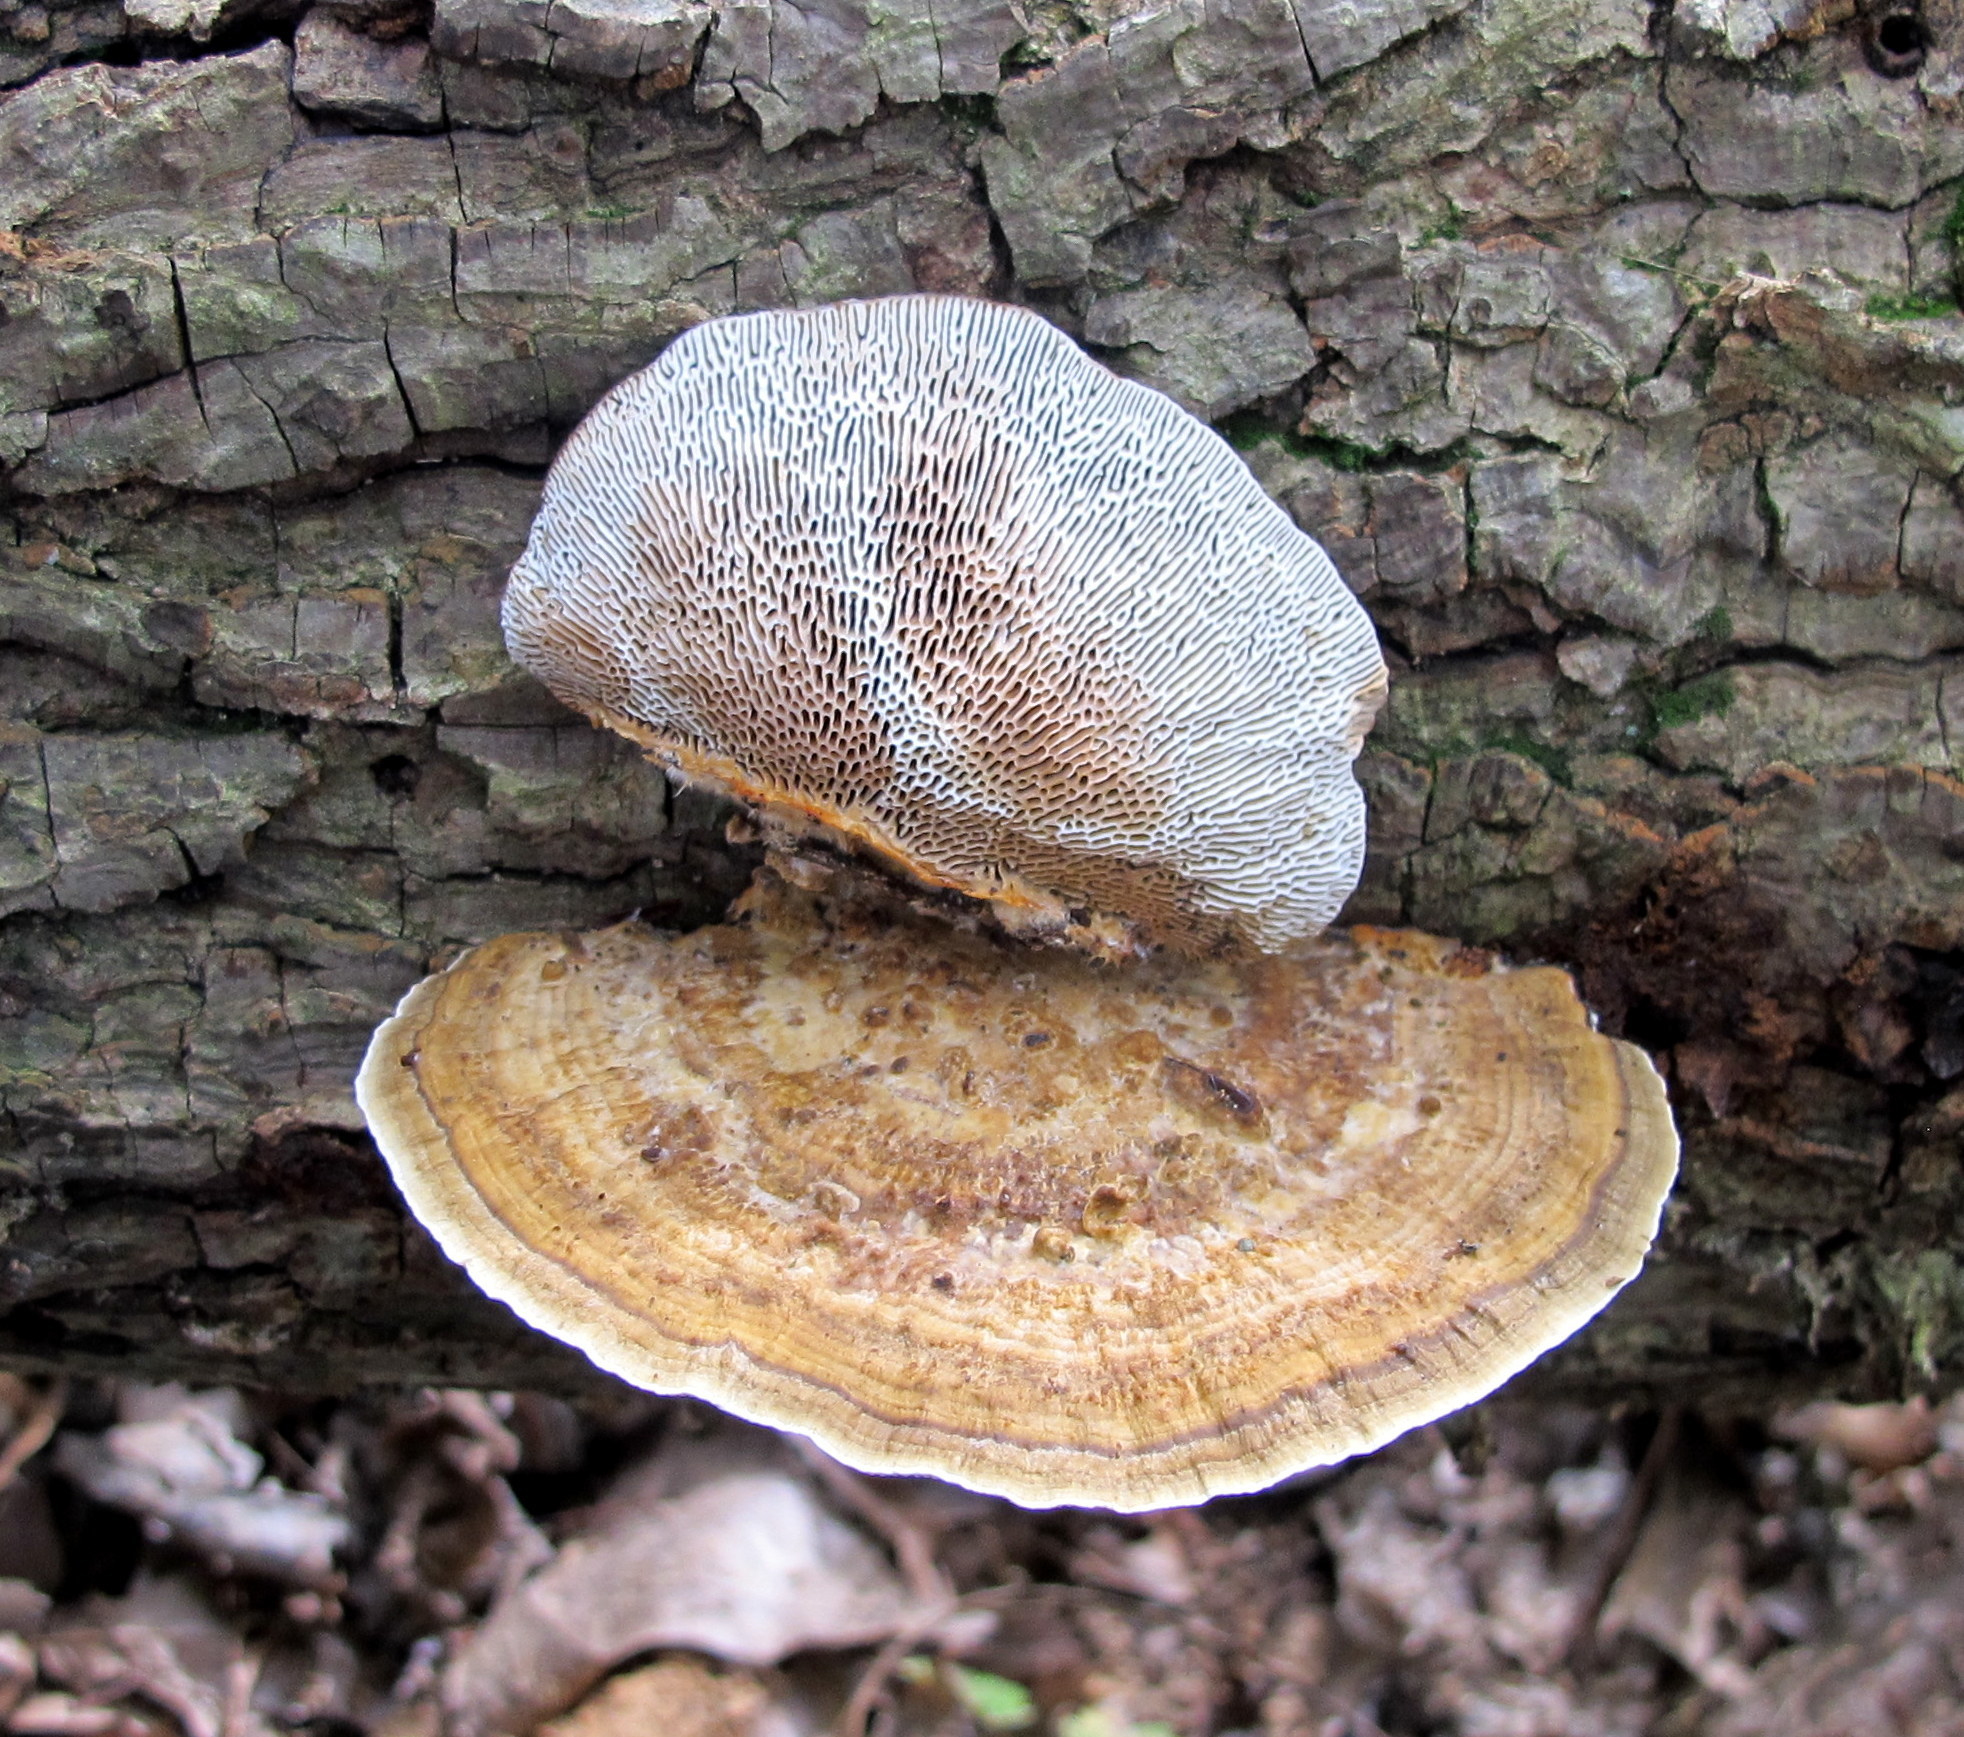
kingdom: Fungi
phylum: Basidiomycota
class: Agaricomycetes
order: Polyporales
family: Polyporaceae
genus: Daedaleopsis
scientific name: Daedaleopsis confragosa
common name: Blushing bracket
